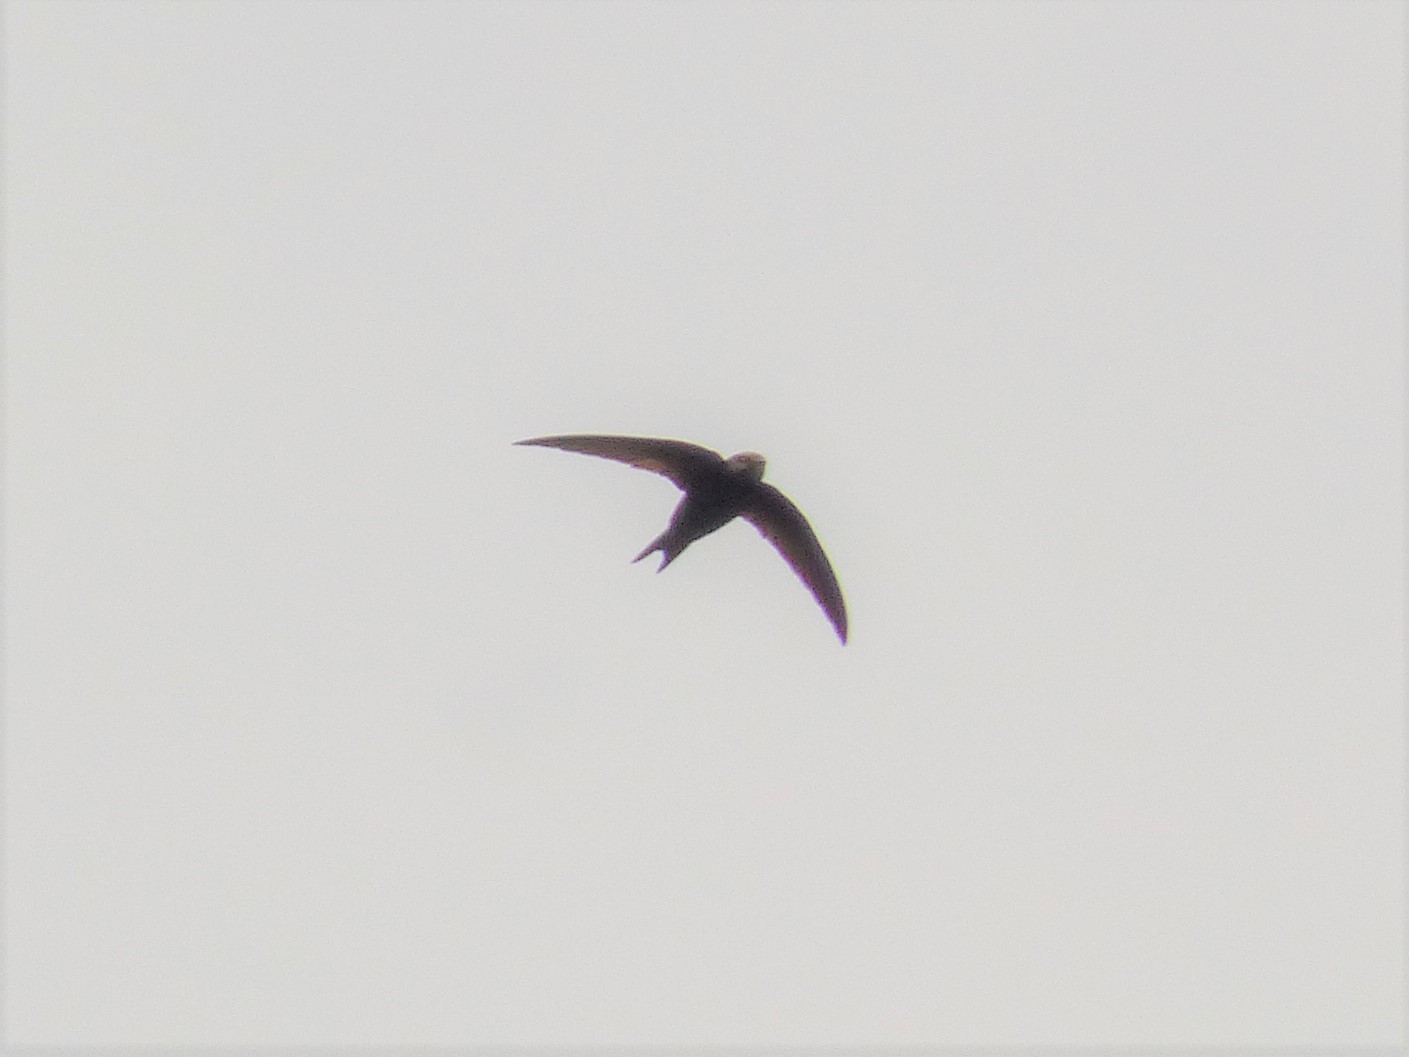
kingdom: Animalia
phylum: Chordata
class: Aves
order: Apodiformes
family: Apodidae
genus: Apus
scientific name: Apus apus
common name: Common swift
